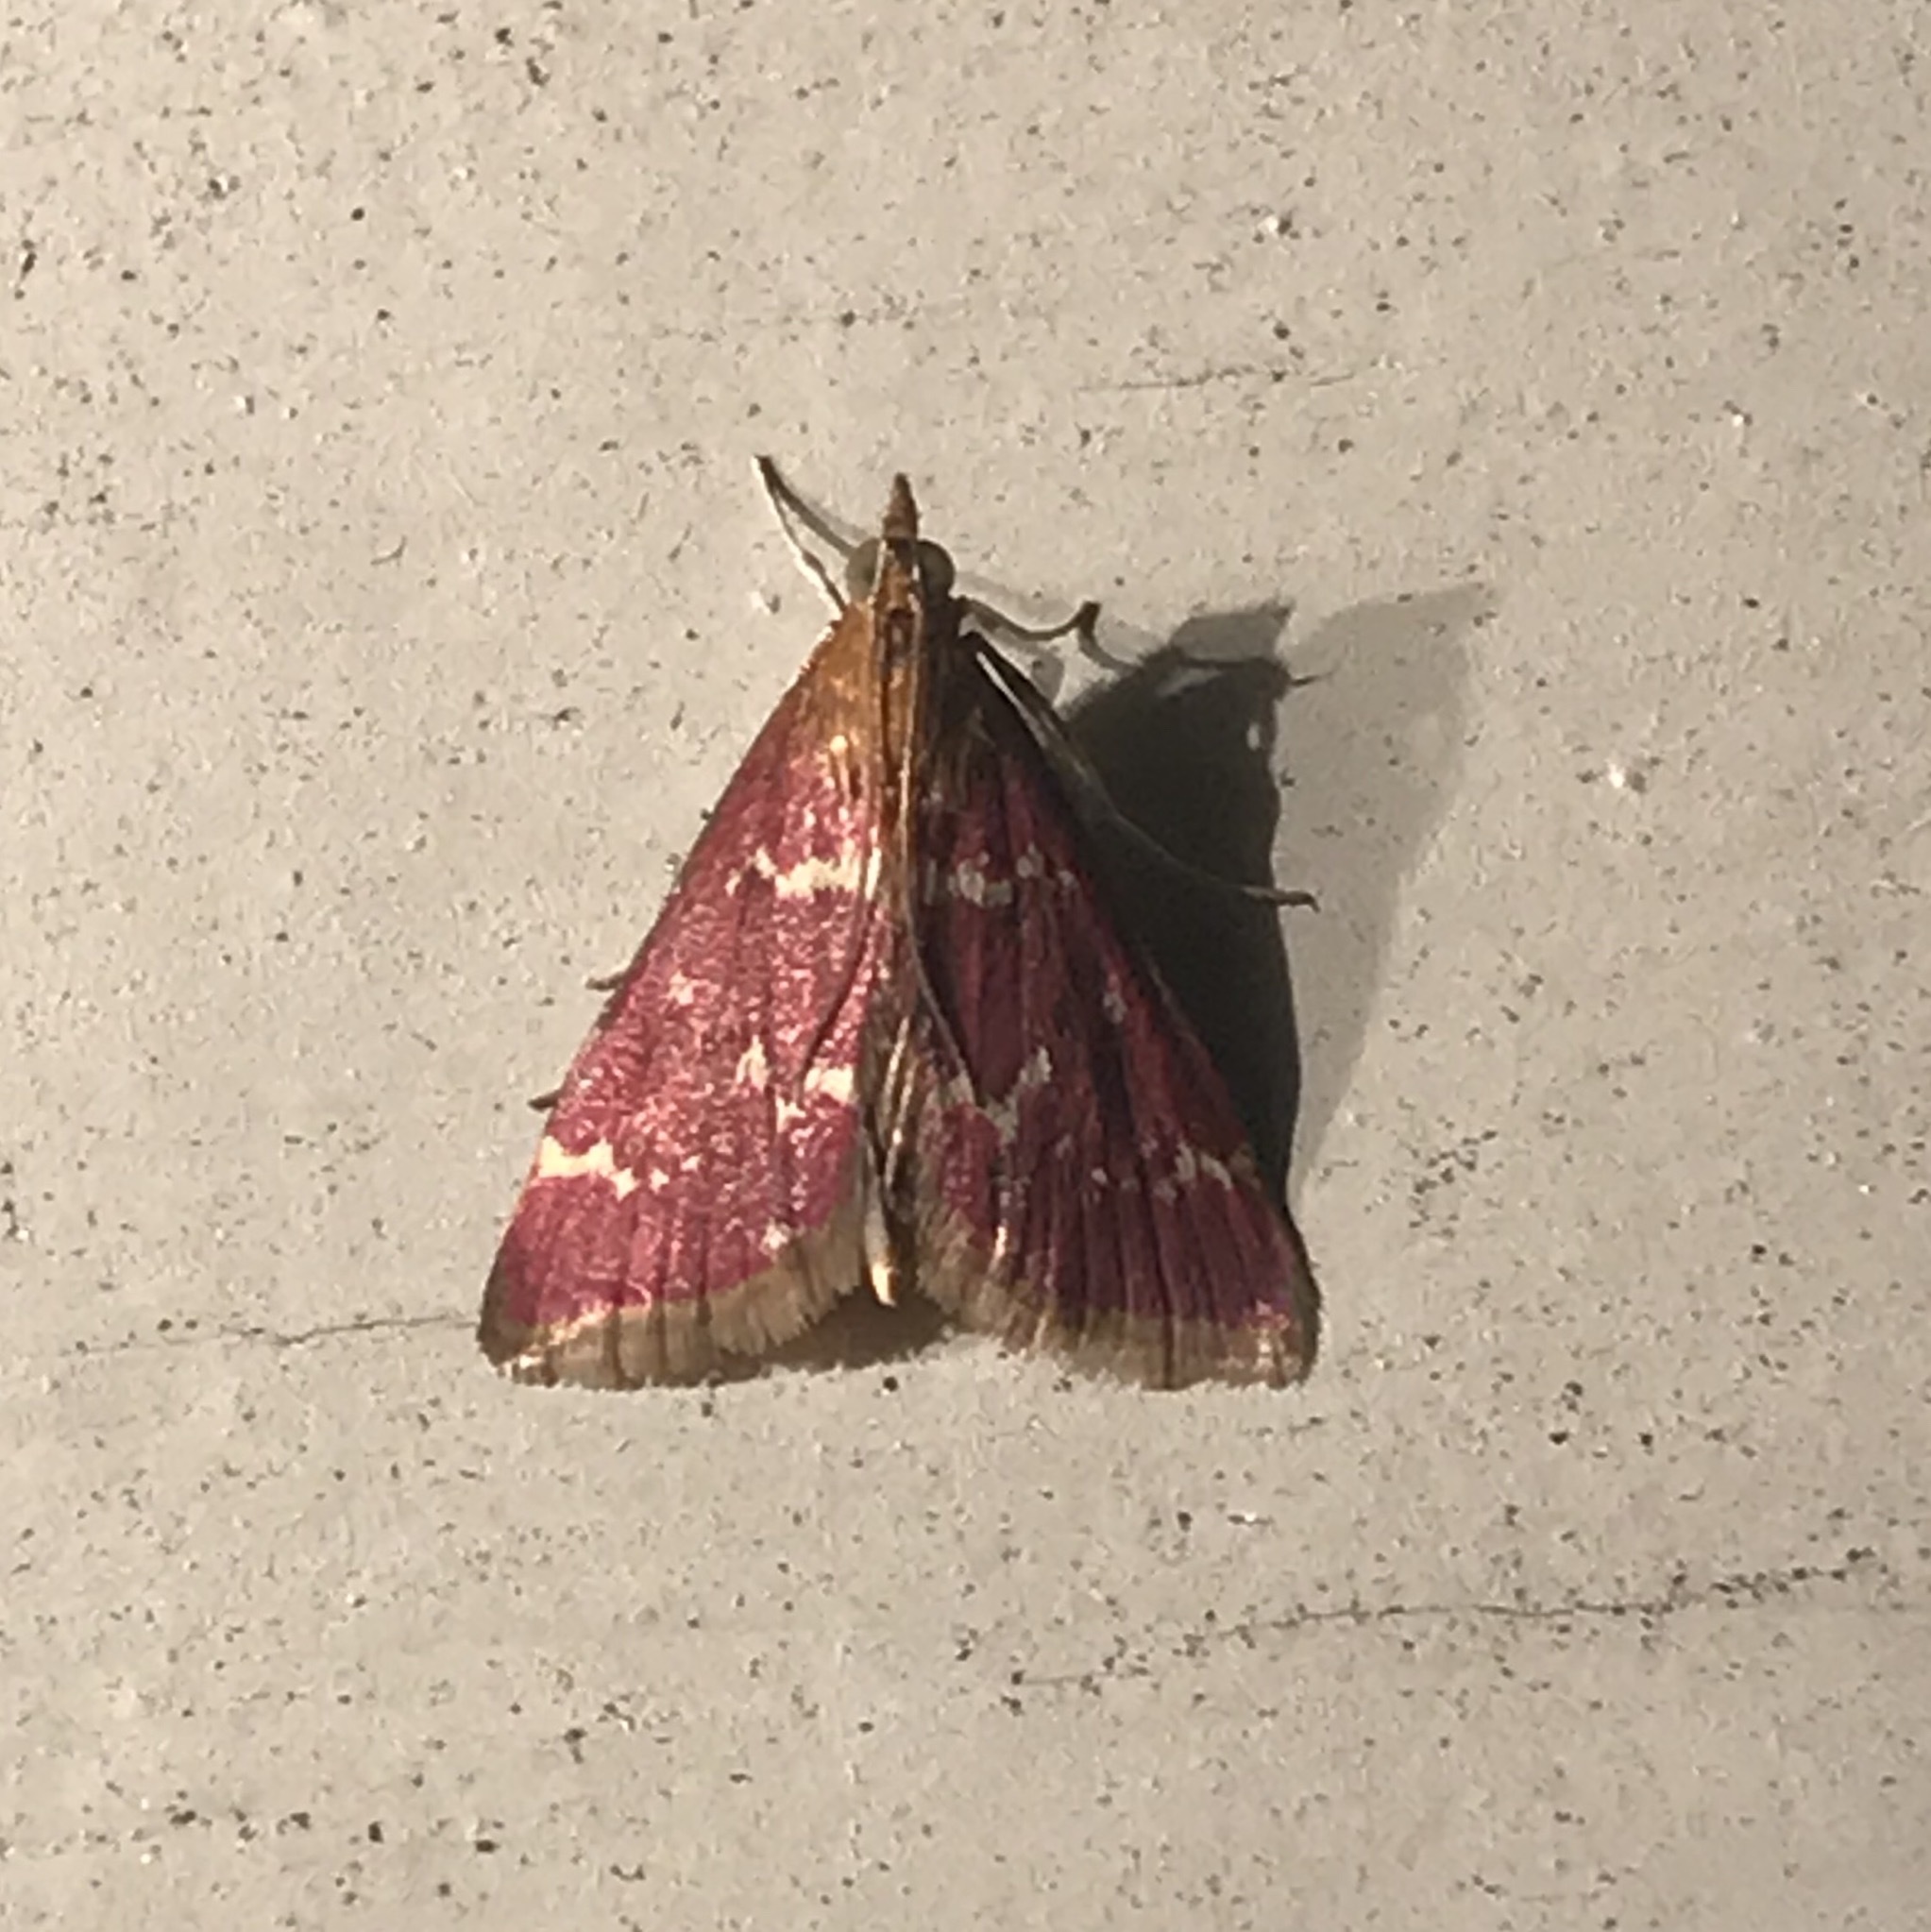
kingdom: Animalia
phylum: Arthropoda
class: Insecta
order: Lepidoptera
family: Crambidae
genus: Pyrausta
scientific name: Pyrausta signatalis
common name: Raspberry pyrausta moth
